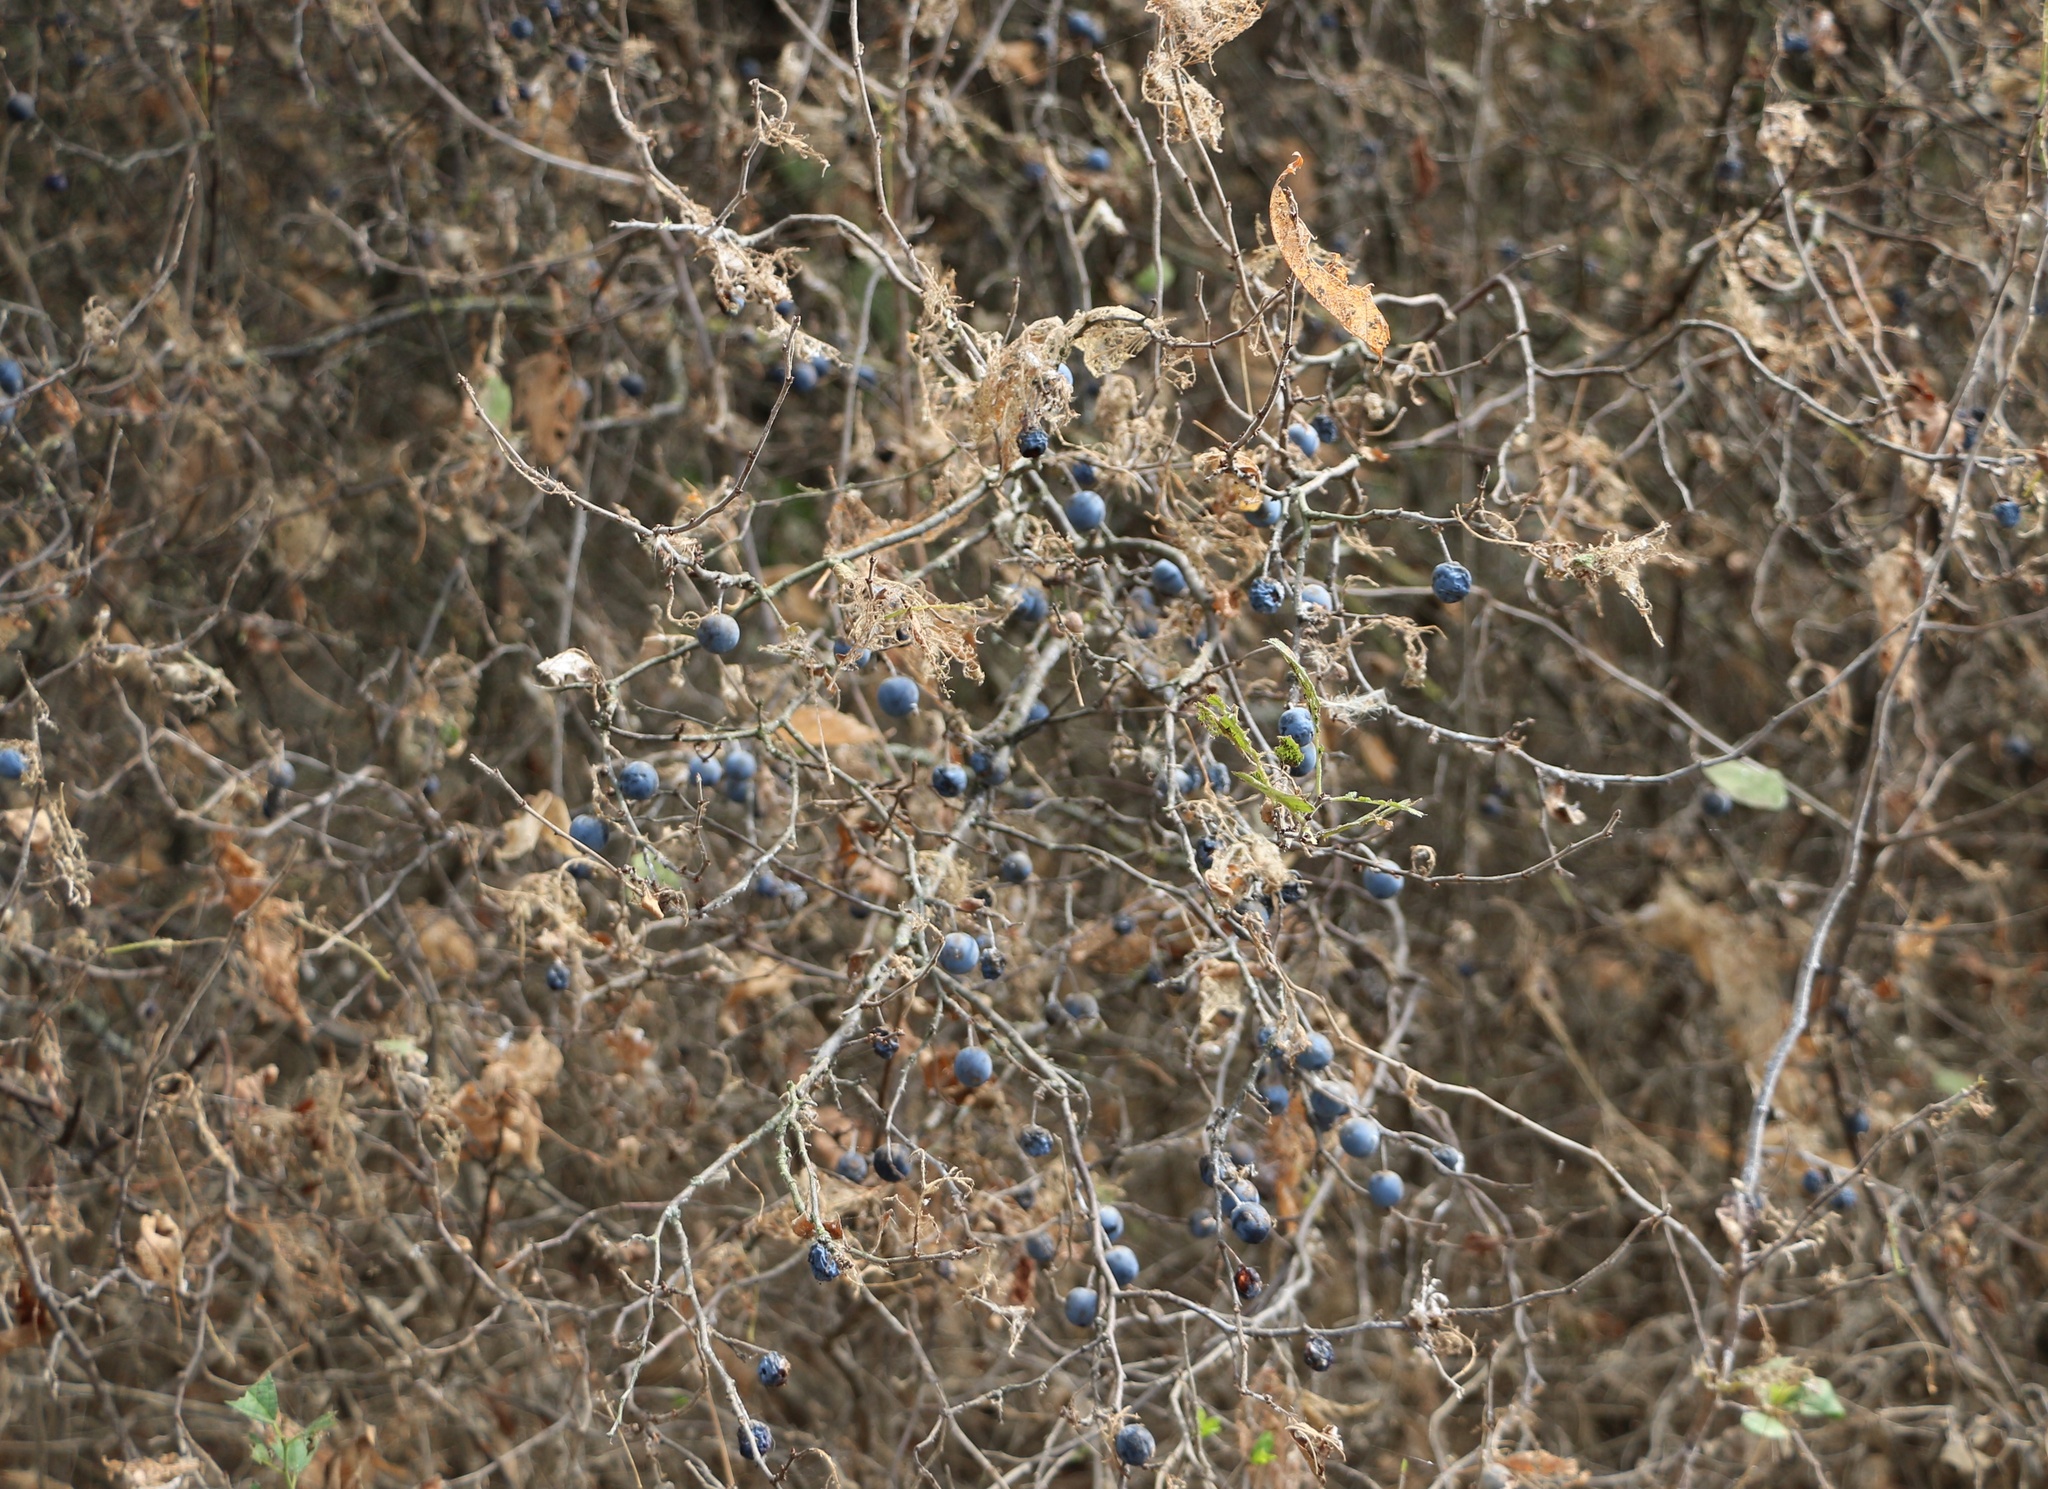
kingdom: Plantae
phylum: Tracheophyta
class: Magnoliopsida
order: Rosales
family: Rosaceae
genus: Prunus
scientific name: Prunus spinosa
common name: Blackthorn
